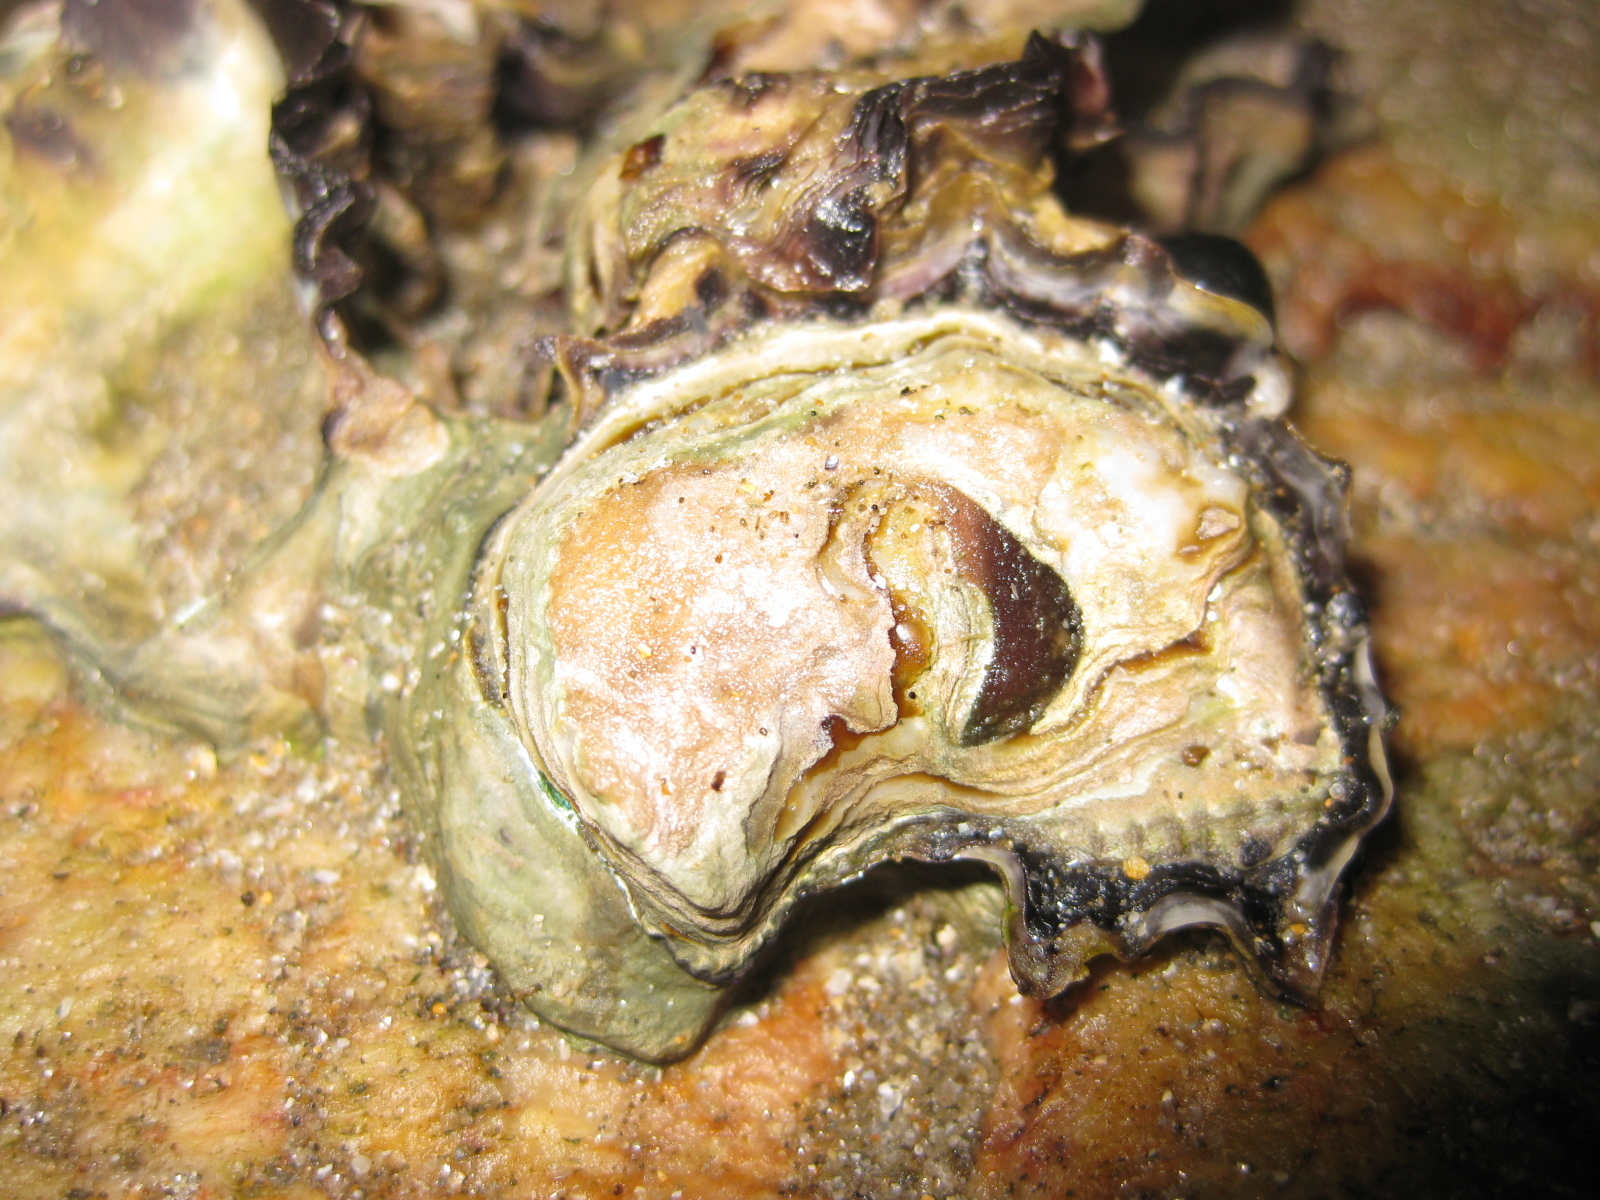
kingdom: Animalia
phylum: Mollusca
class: Bivalvia
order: Ostreida
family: Ostreidae
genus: Saccostrea
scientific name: Saccostrea glomerata
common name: Sydney cupped oyster
